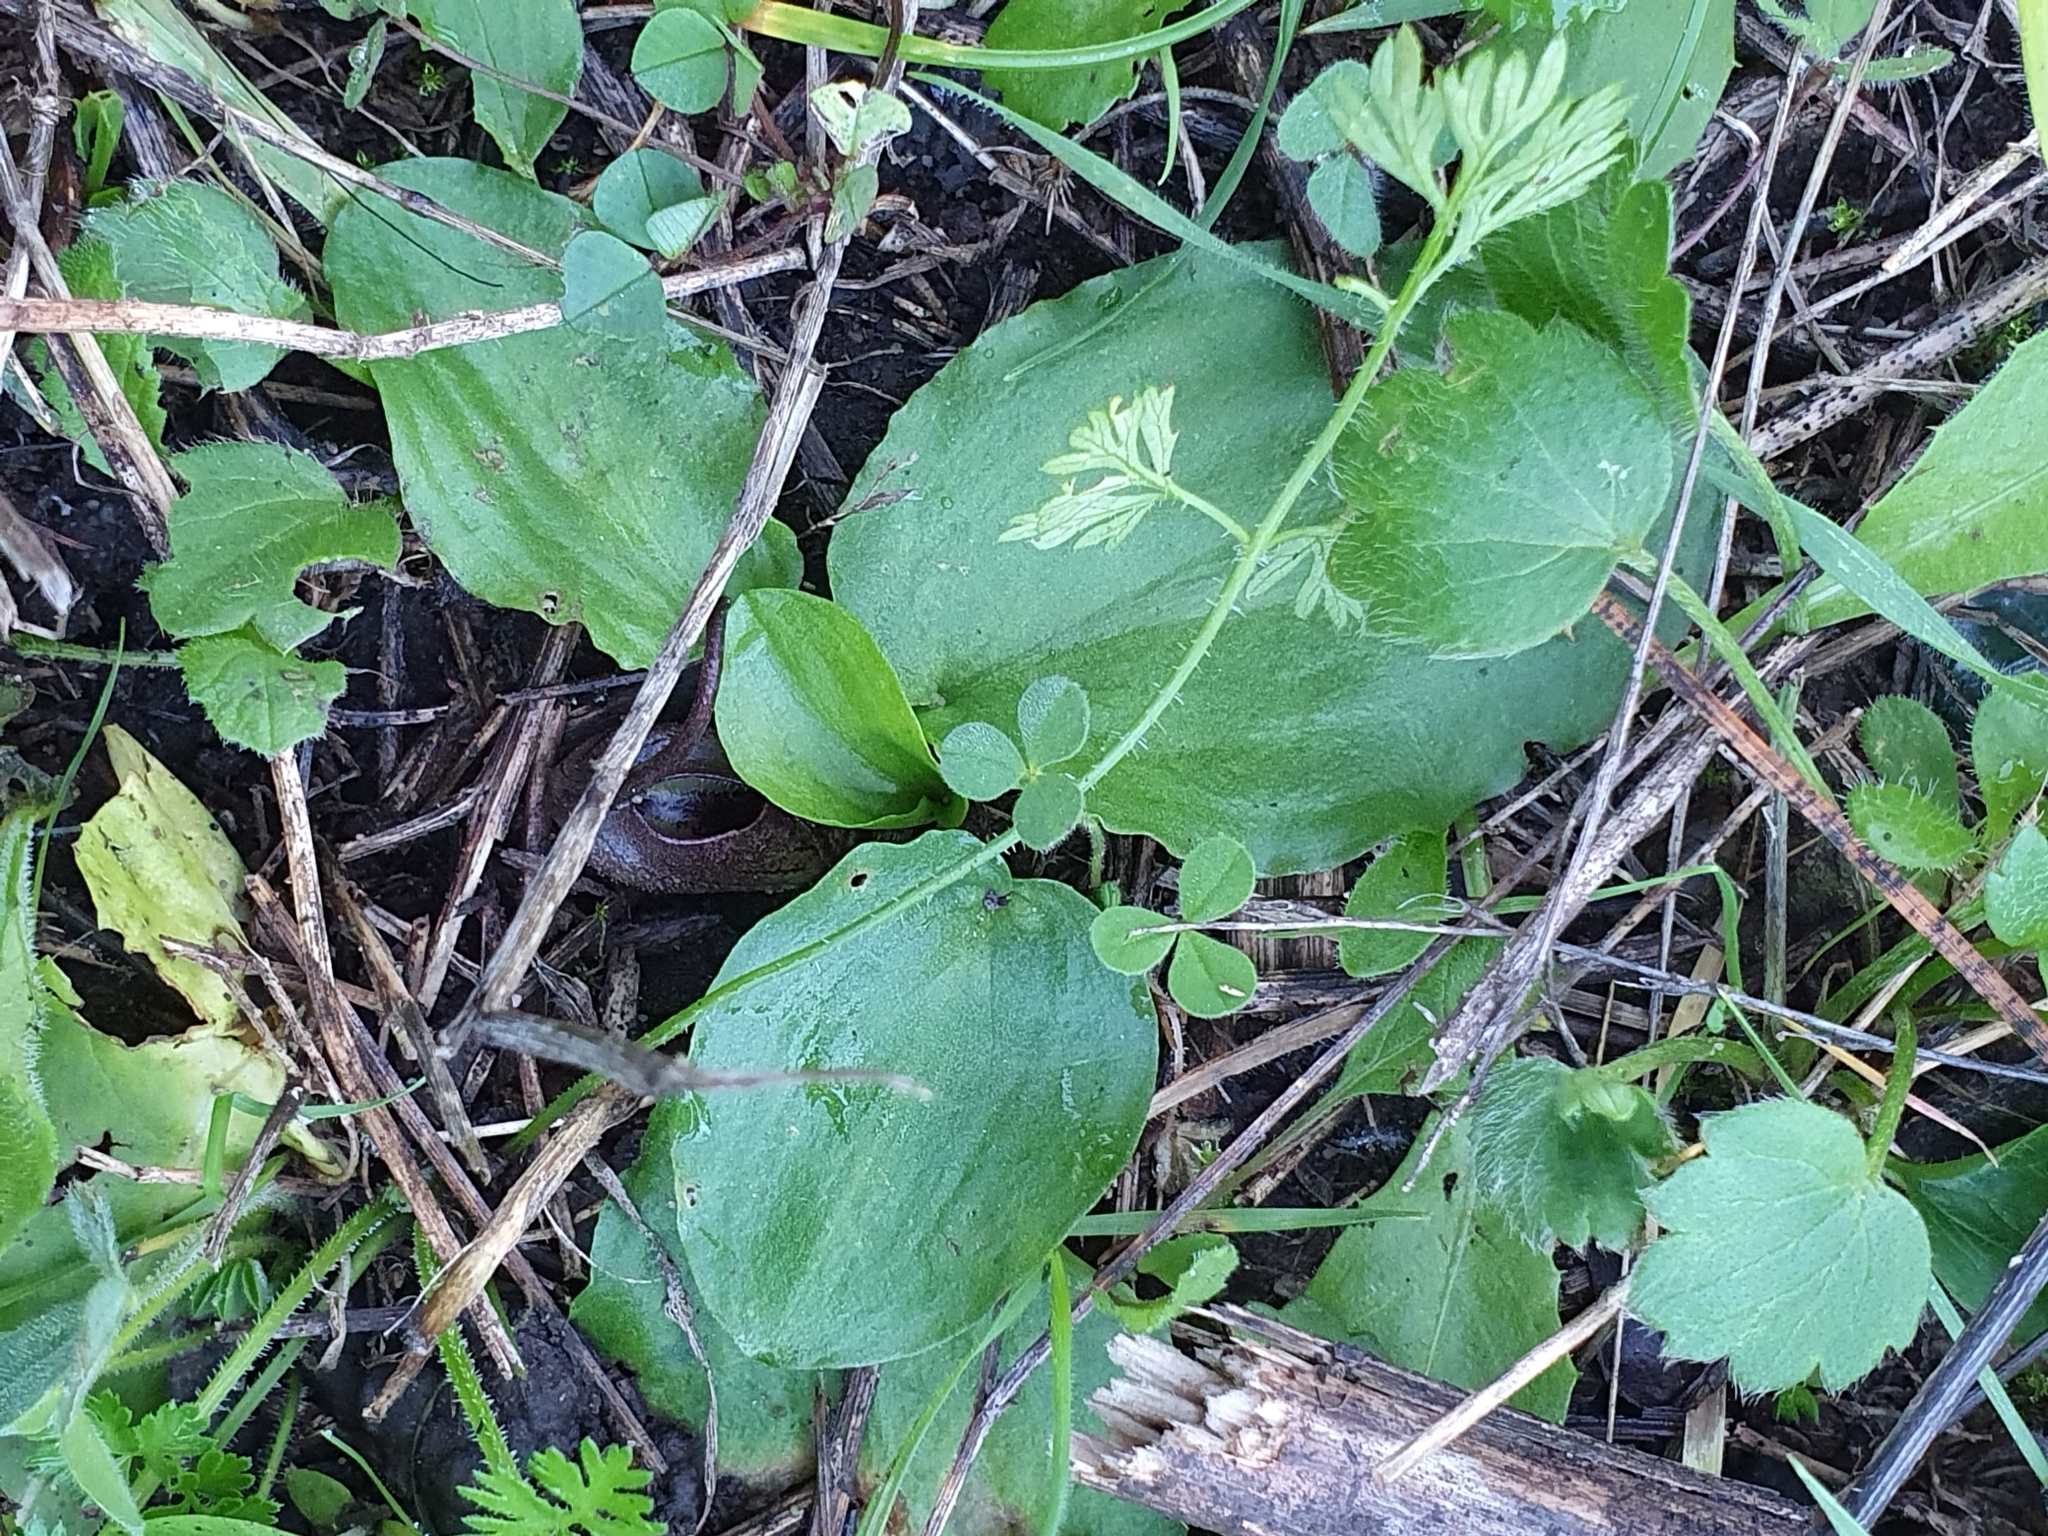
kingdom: Plantae
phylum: Tracheophyta
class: Liliopsida
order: Alismatales
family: Araceae
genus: Ambrosina
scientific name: Ambrosina bassii
